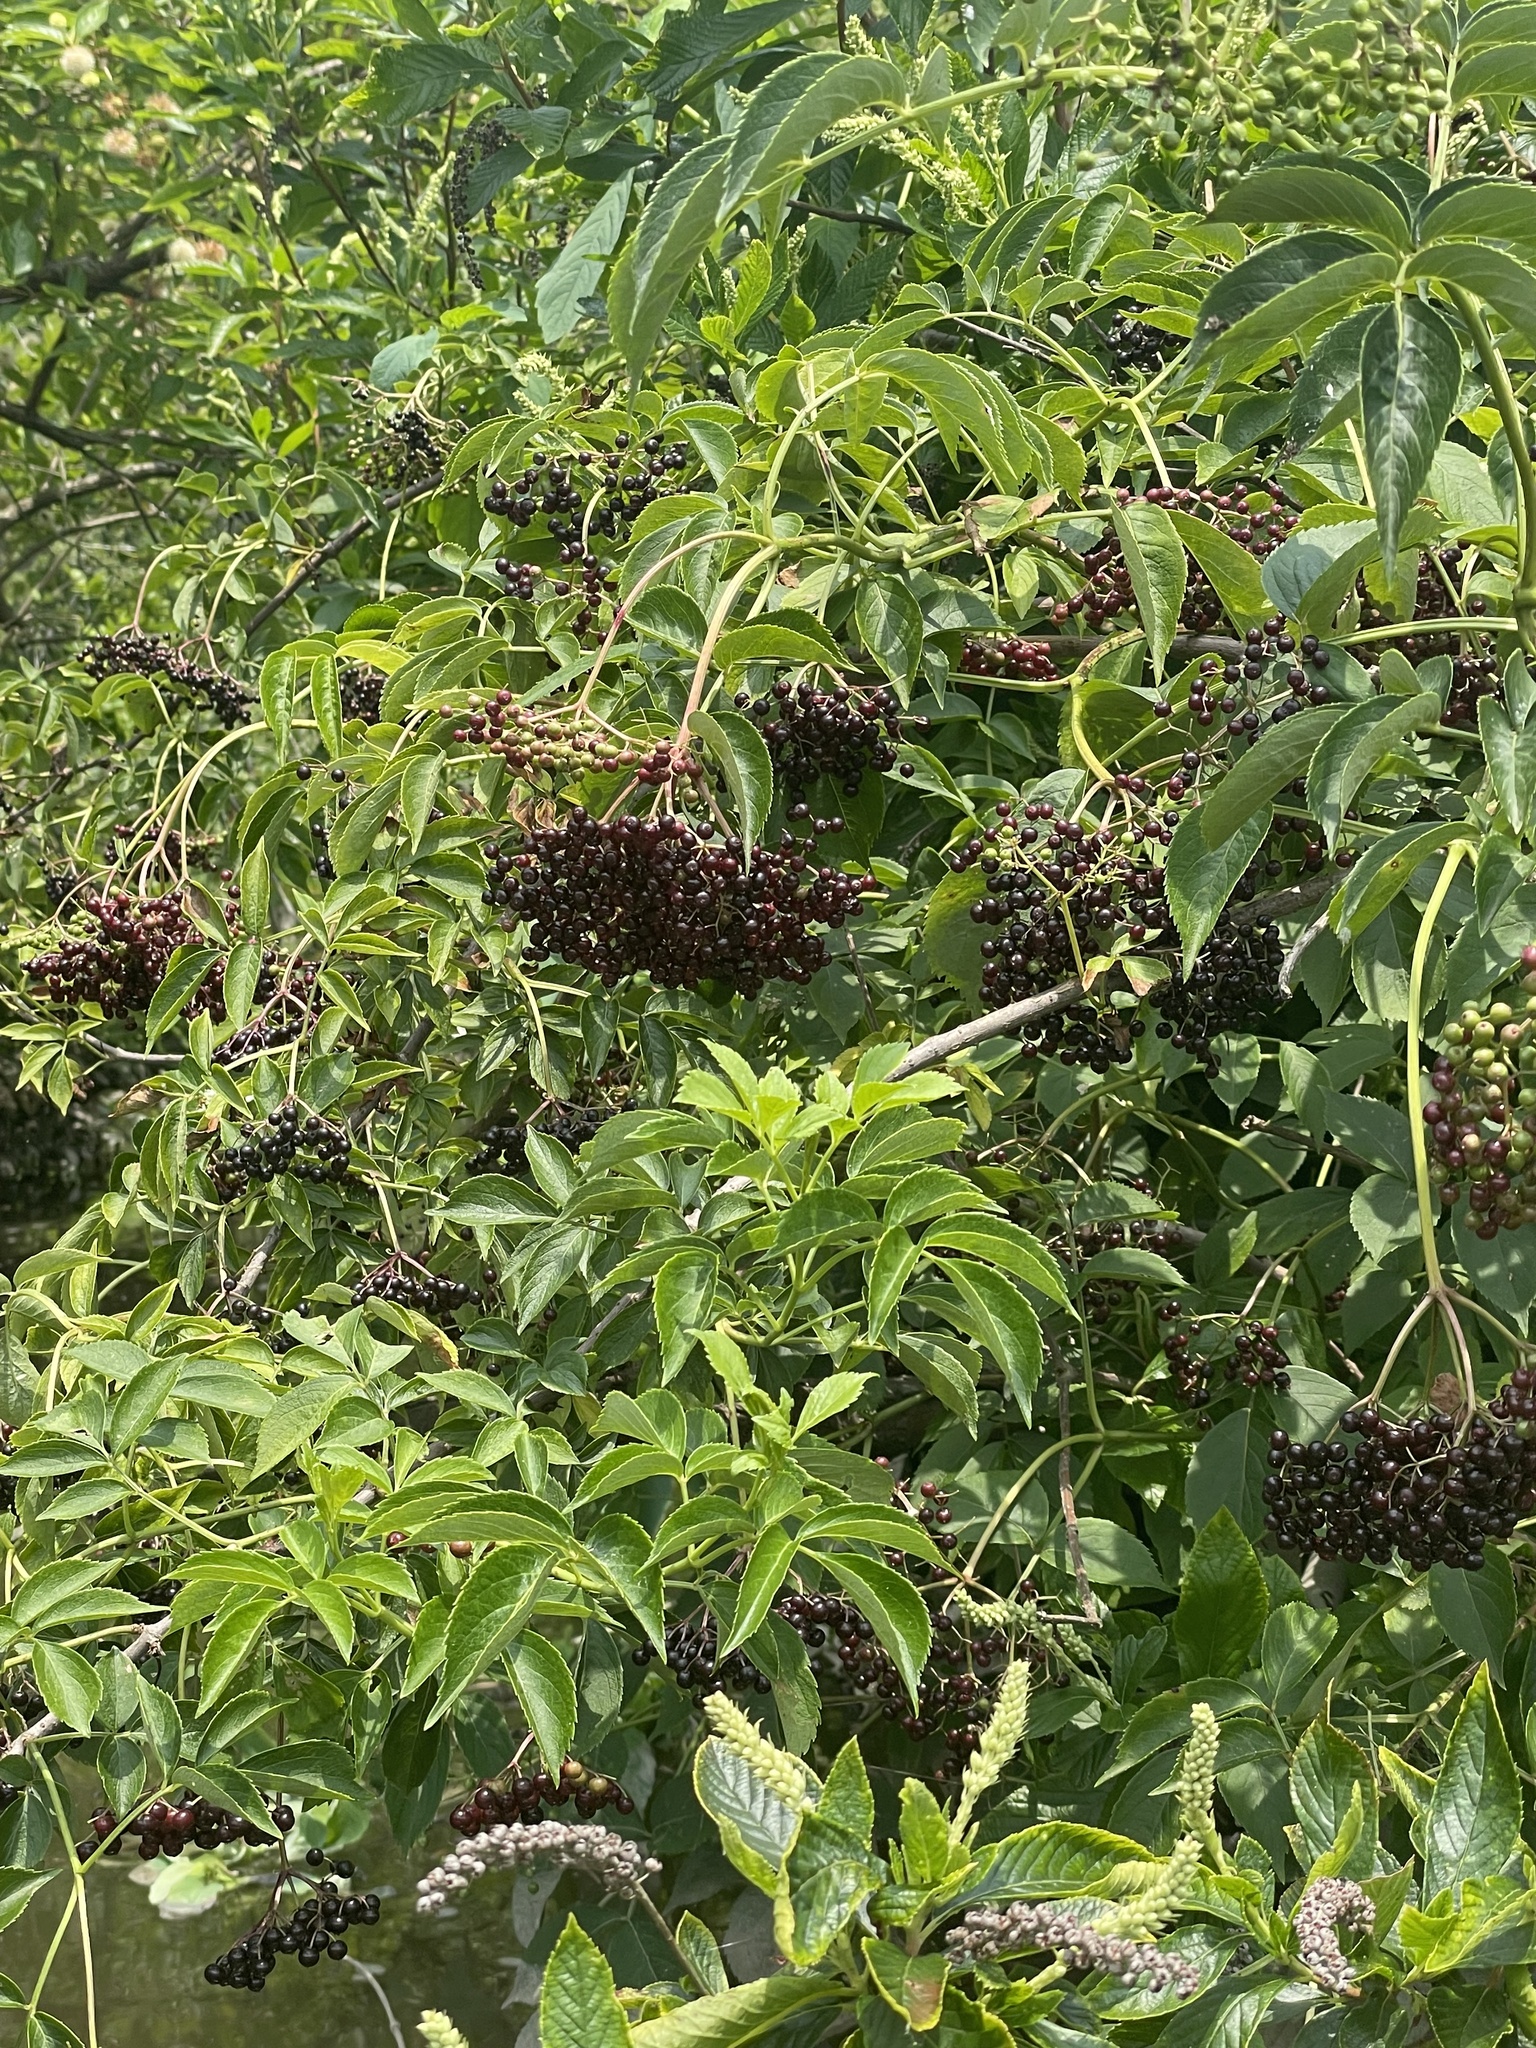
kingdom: Plantae
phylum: Tracheophyta
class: Magnoliopsida
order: Dipsacales
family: Viburnaceae
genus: Sambucus
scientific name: Sambucus canadensis
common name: American elder
